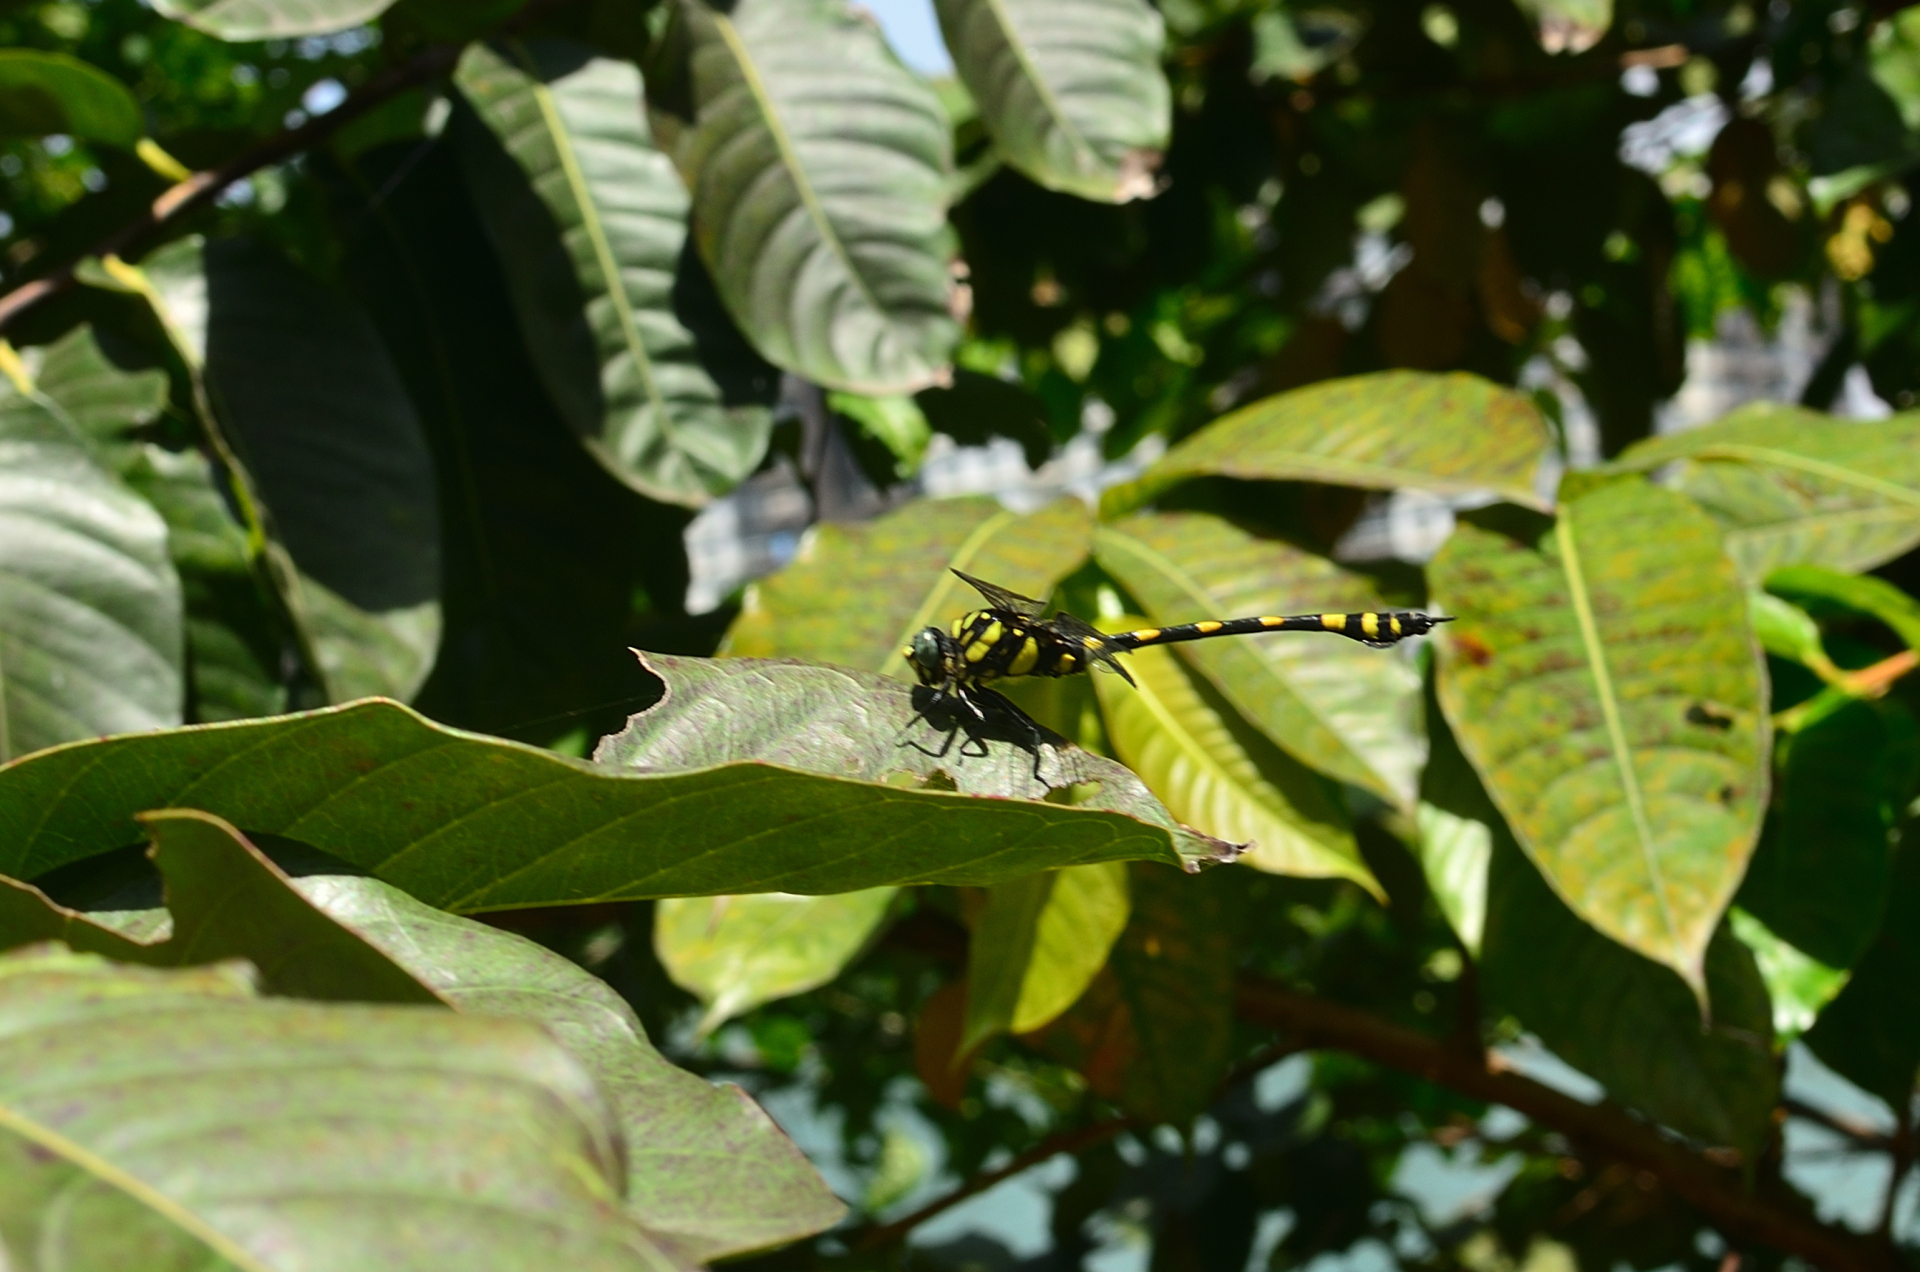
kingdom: Animalia
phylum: Arthropoda
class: Insecta
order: Odonata
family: Gomphidae
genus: Ictinogomphus
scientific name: Ictinogomphus rapax
